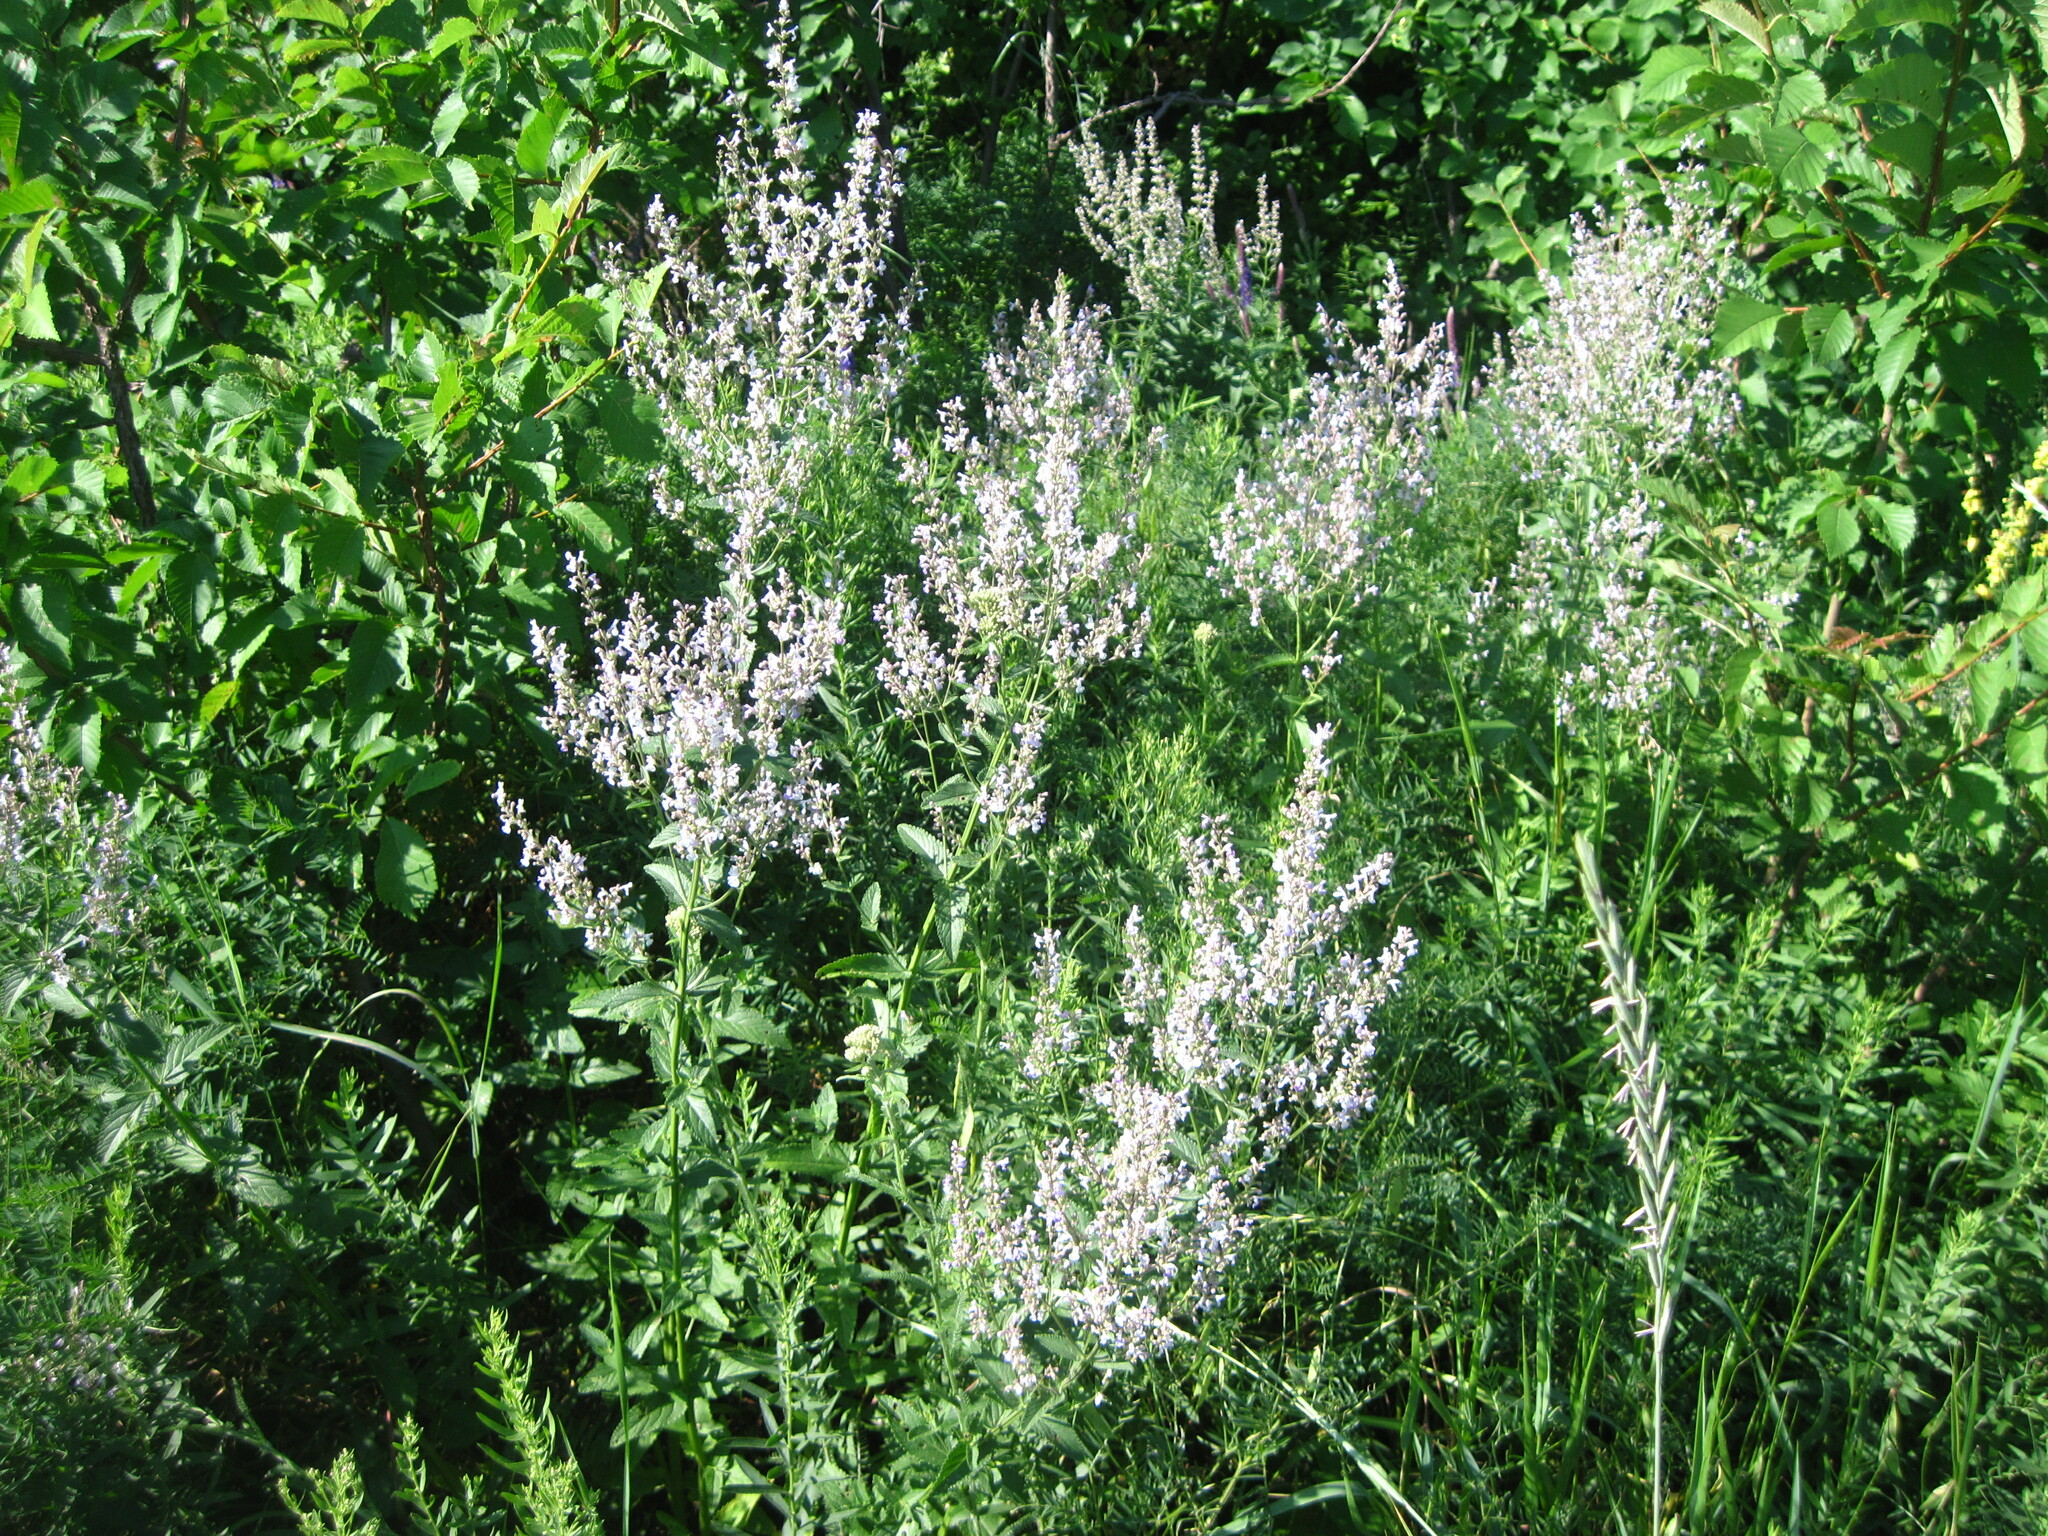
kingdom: Plantae
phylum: Tracheophyta
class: Magnoliopsida
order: Lamiales
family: Lamiaceae
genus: Nepeta
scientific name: Nepeta nuda
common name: Hairless catmint
